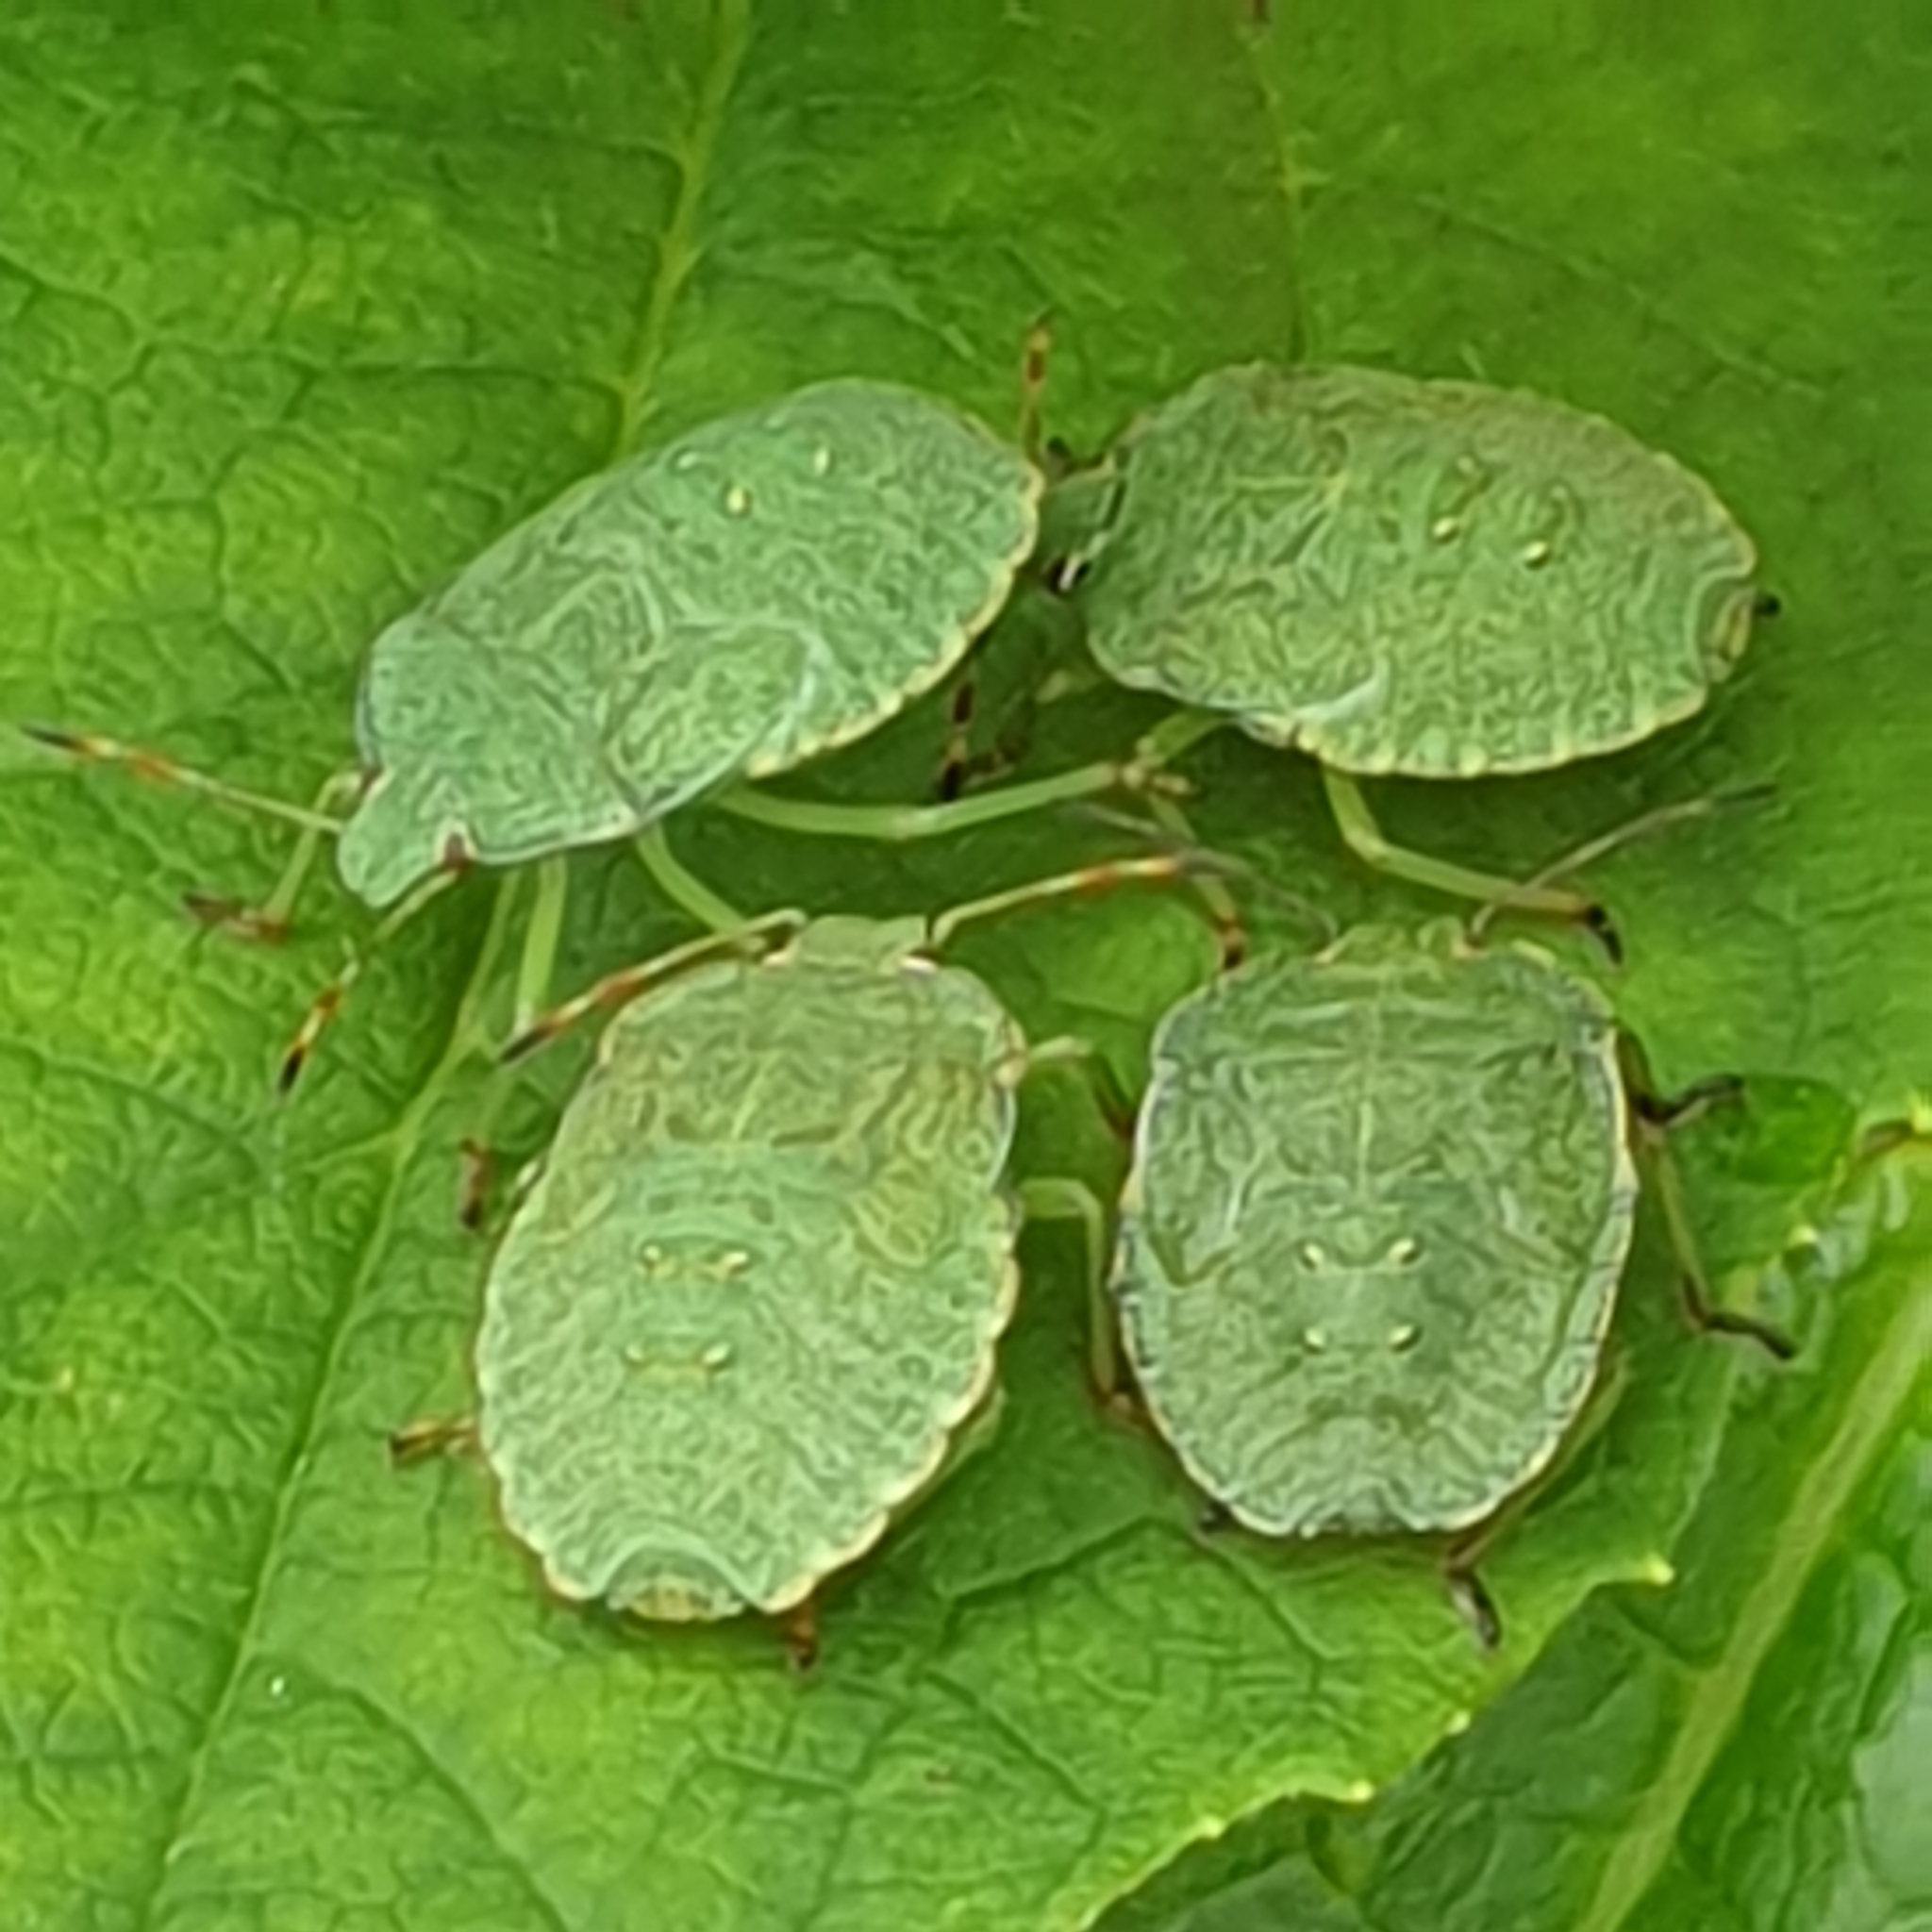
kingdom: Animalia
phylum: Arthropoda
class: Insecta
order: Hemiptera
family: Pentatomidae
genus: Palomena
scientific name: Palomena prasina
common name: Green shieldbug
